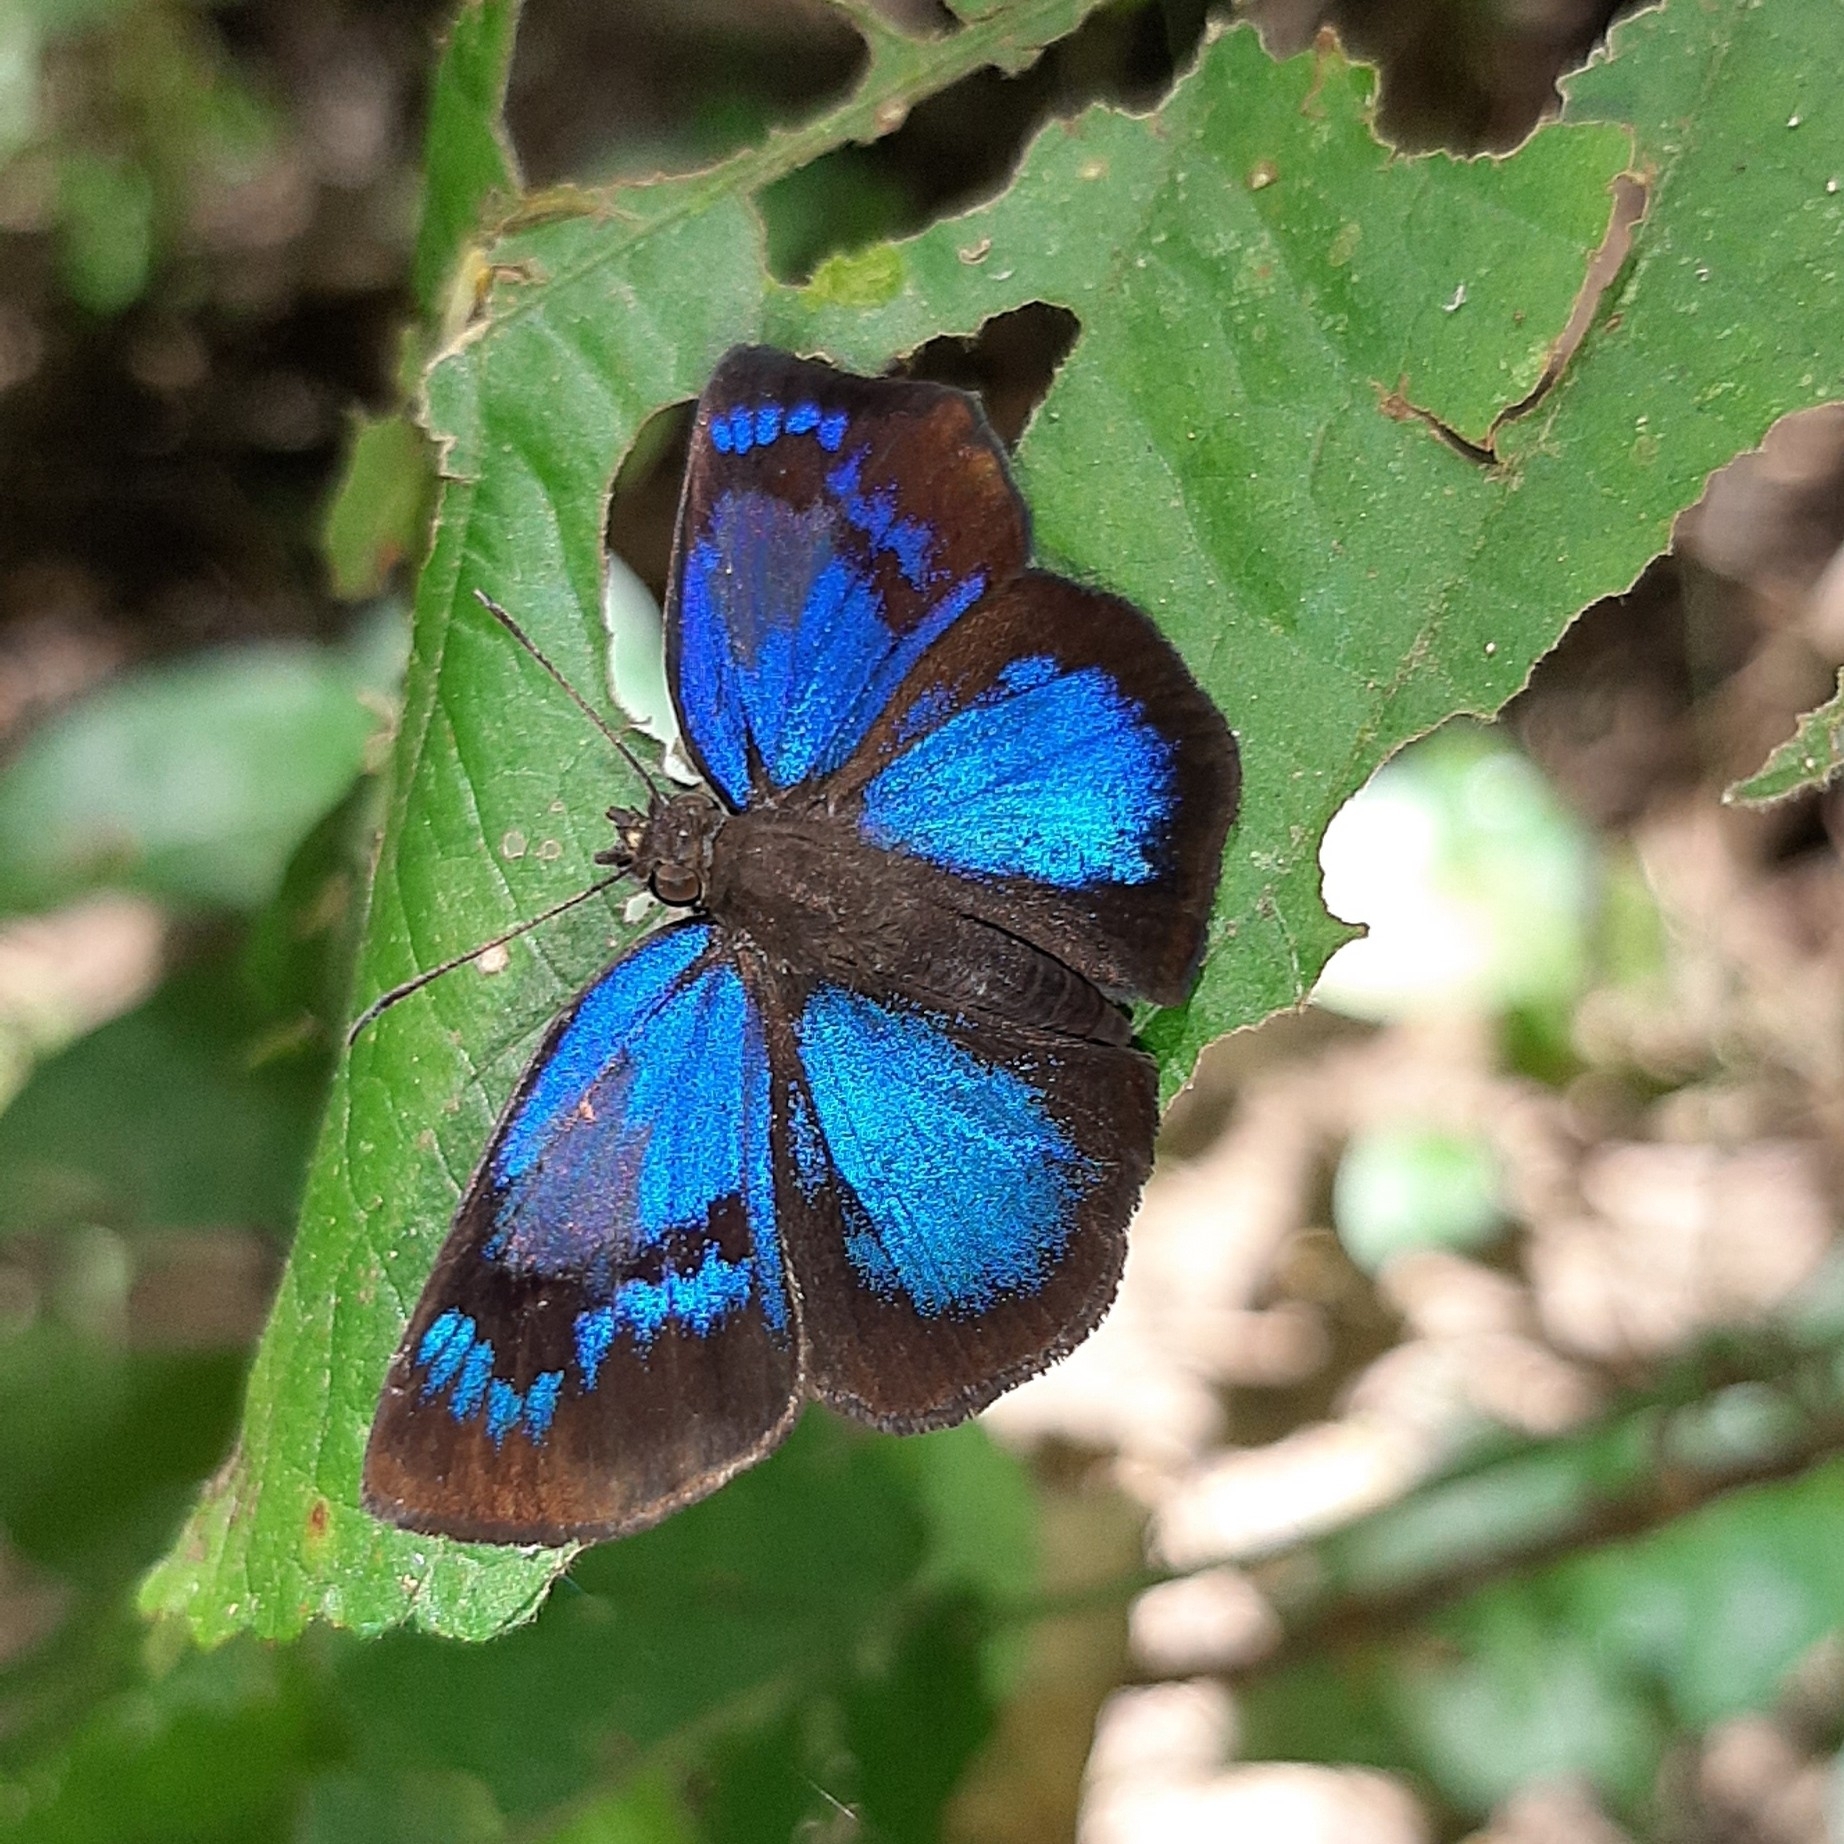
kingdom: Animalia
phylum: Arthropoda
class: Insecta
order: Lepidoptera
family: Hesperiidae
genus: Paches
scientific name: Paches loxus
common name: Glorious blue-skipper
